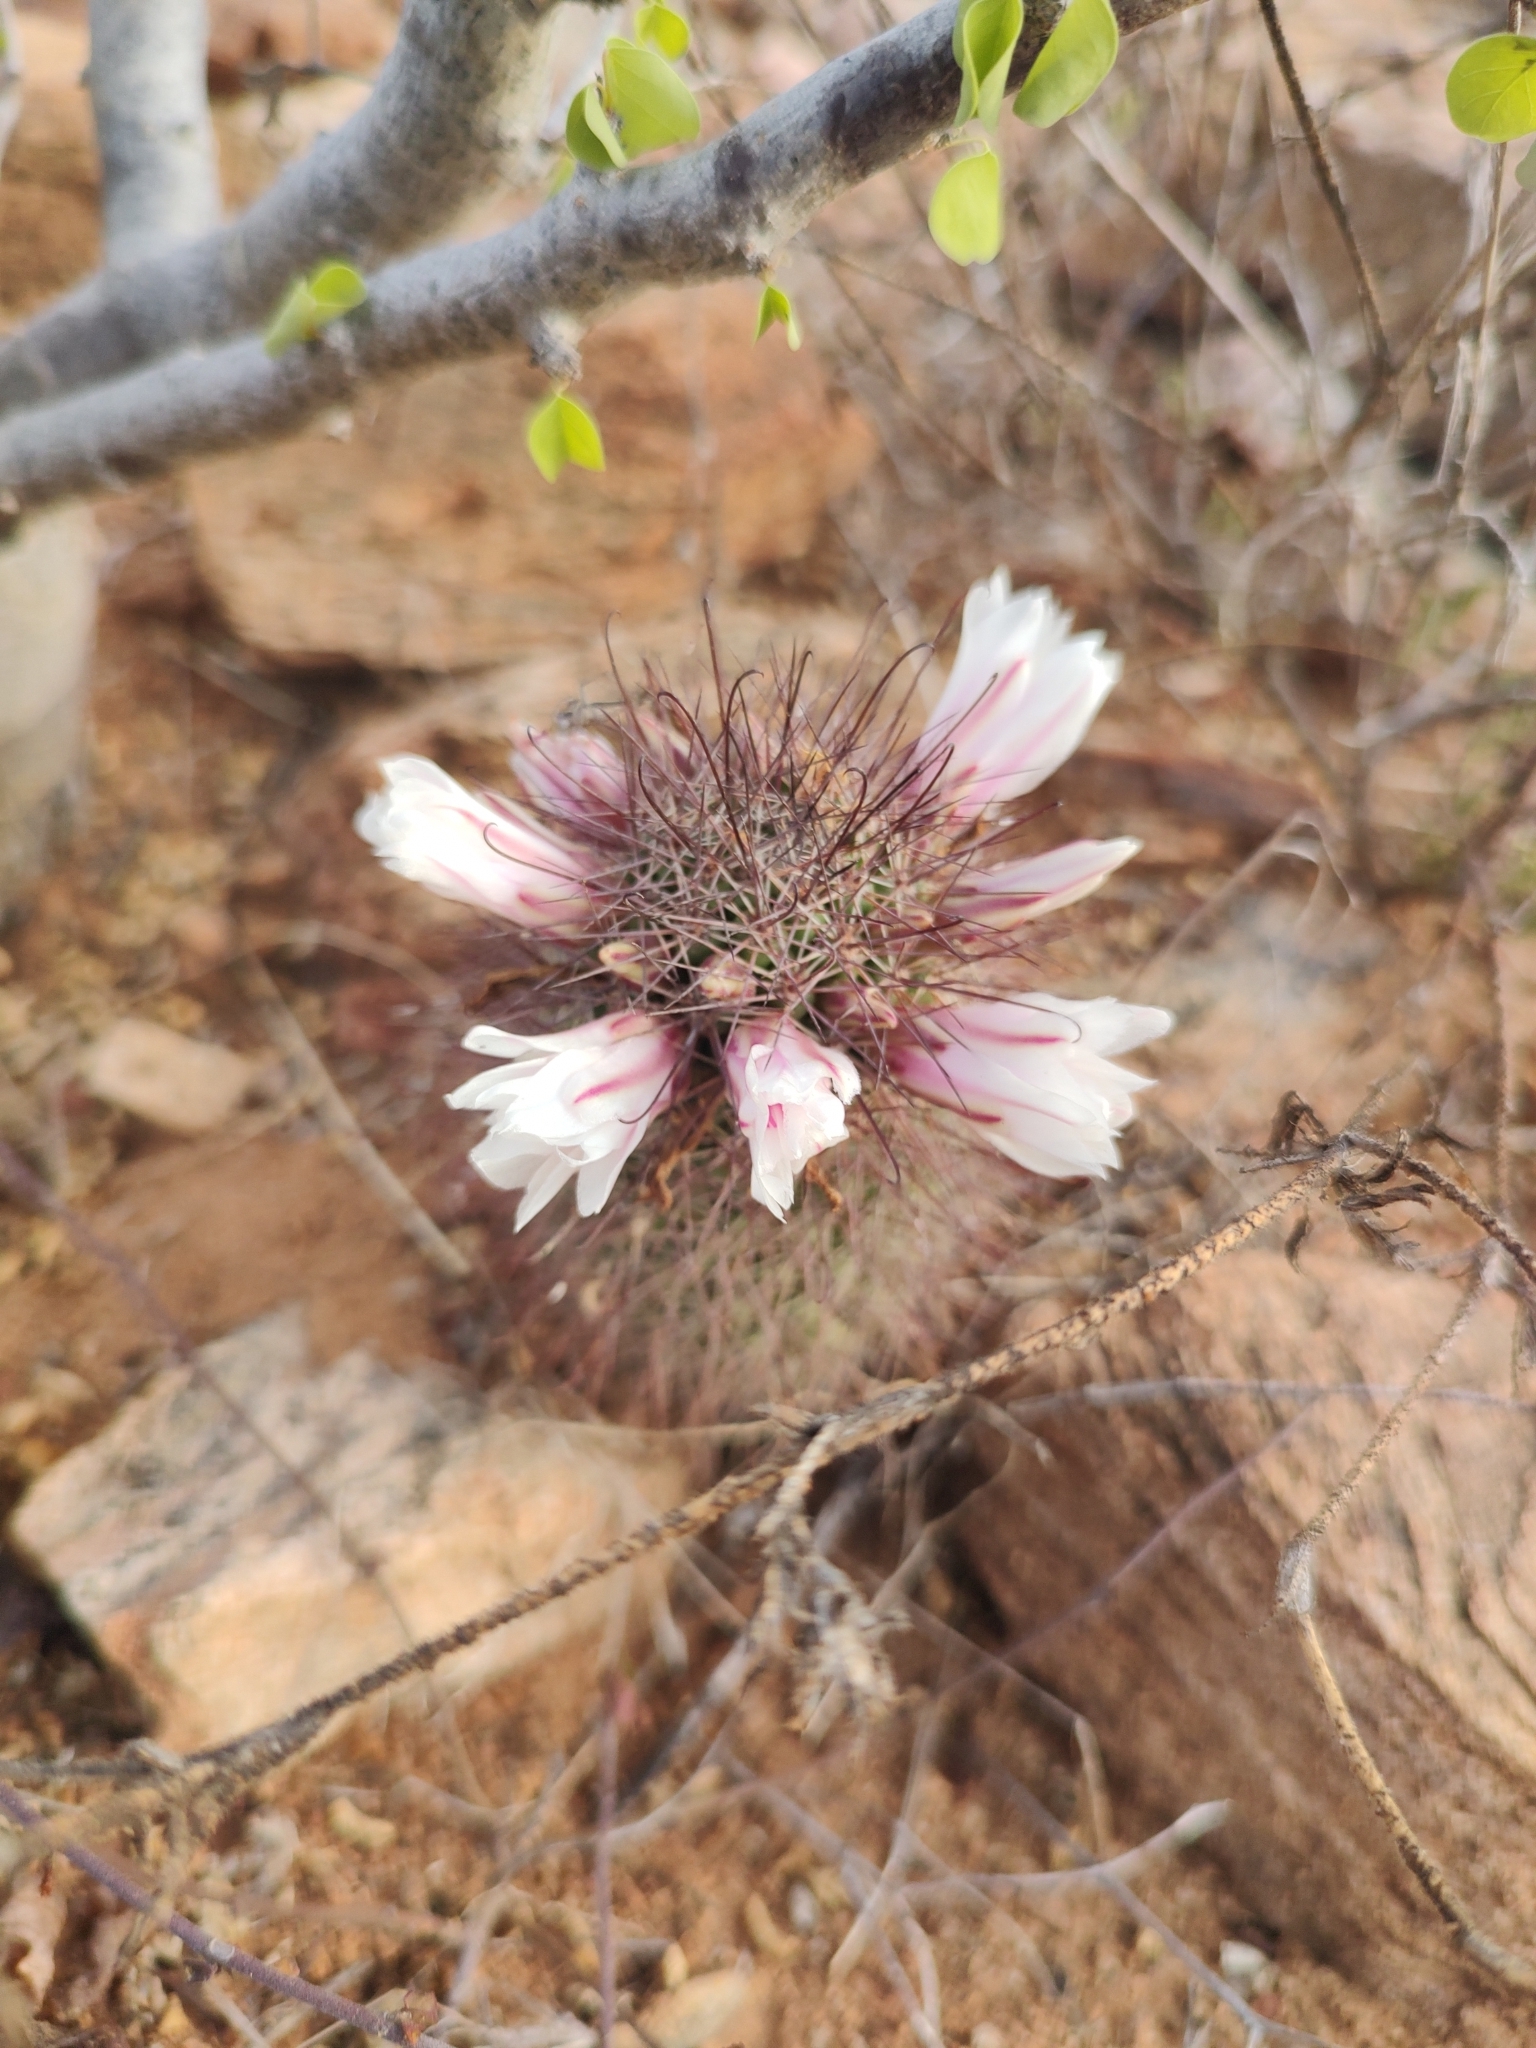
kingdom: Plantae
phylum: Tracheophyta
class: Magnoliopsida
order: Caryophyllales
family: Cactaceae
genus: Cochemiea
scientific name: Cochemiea dioica
